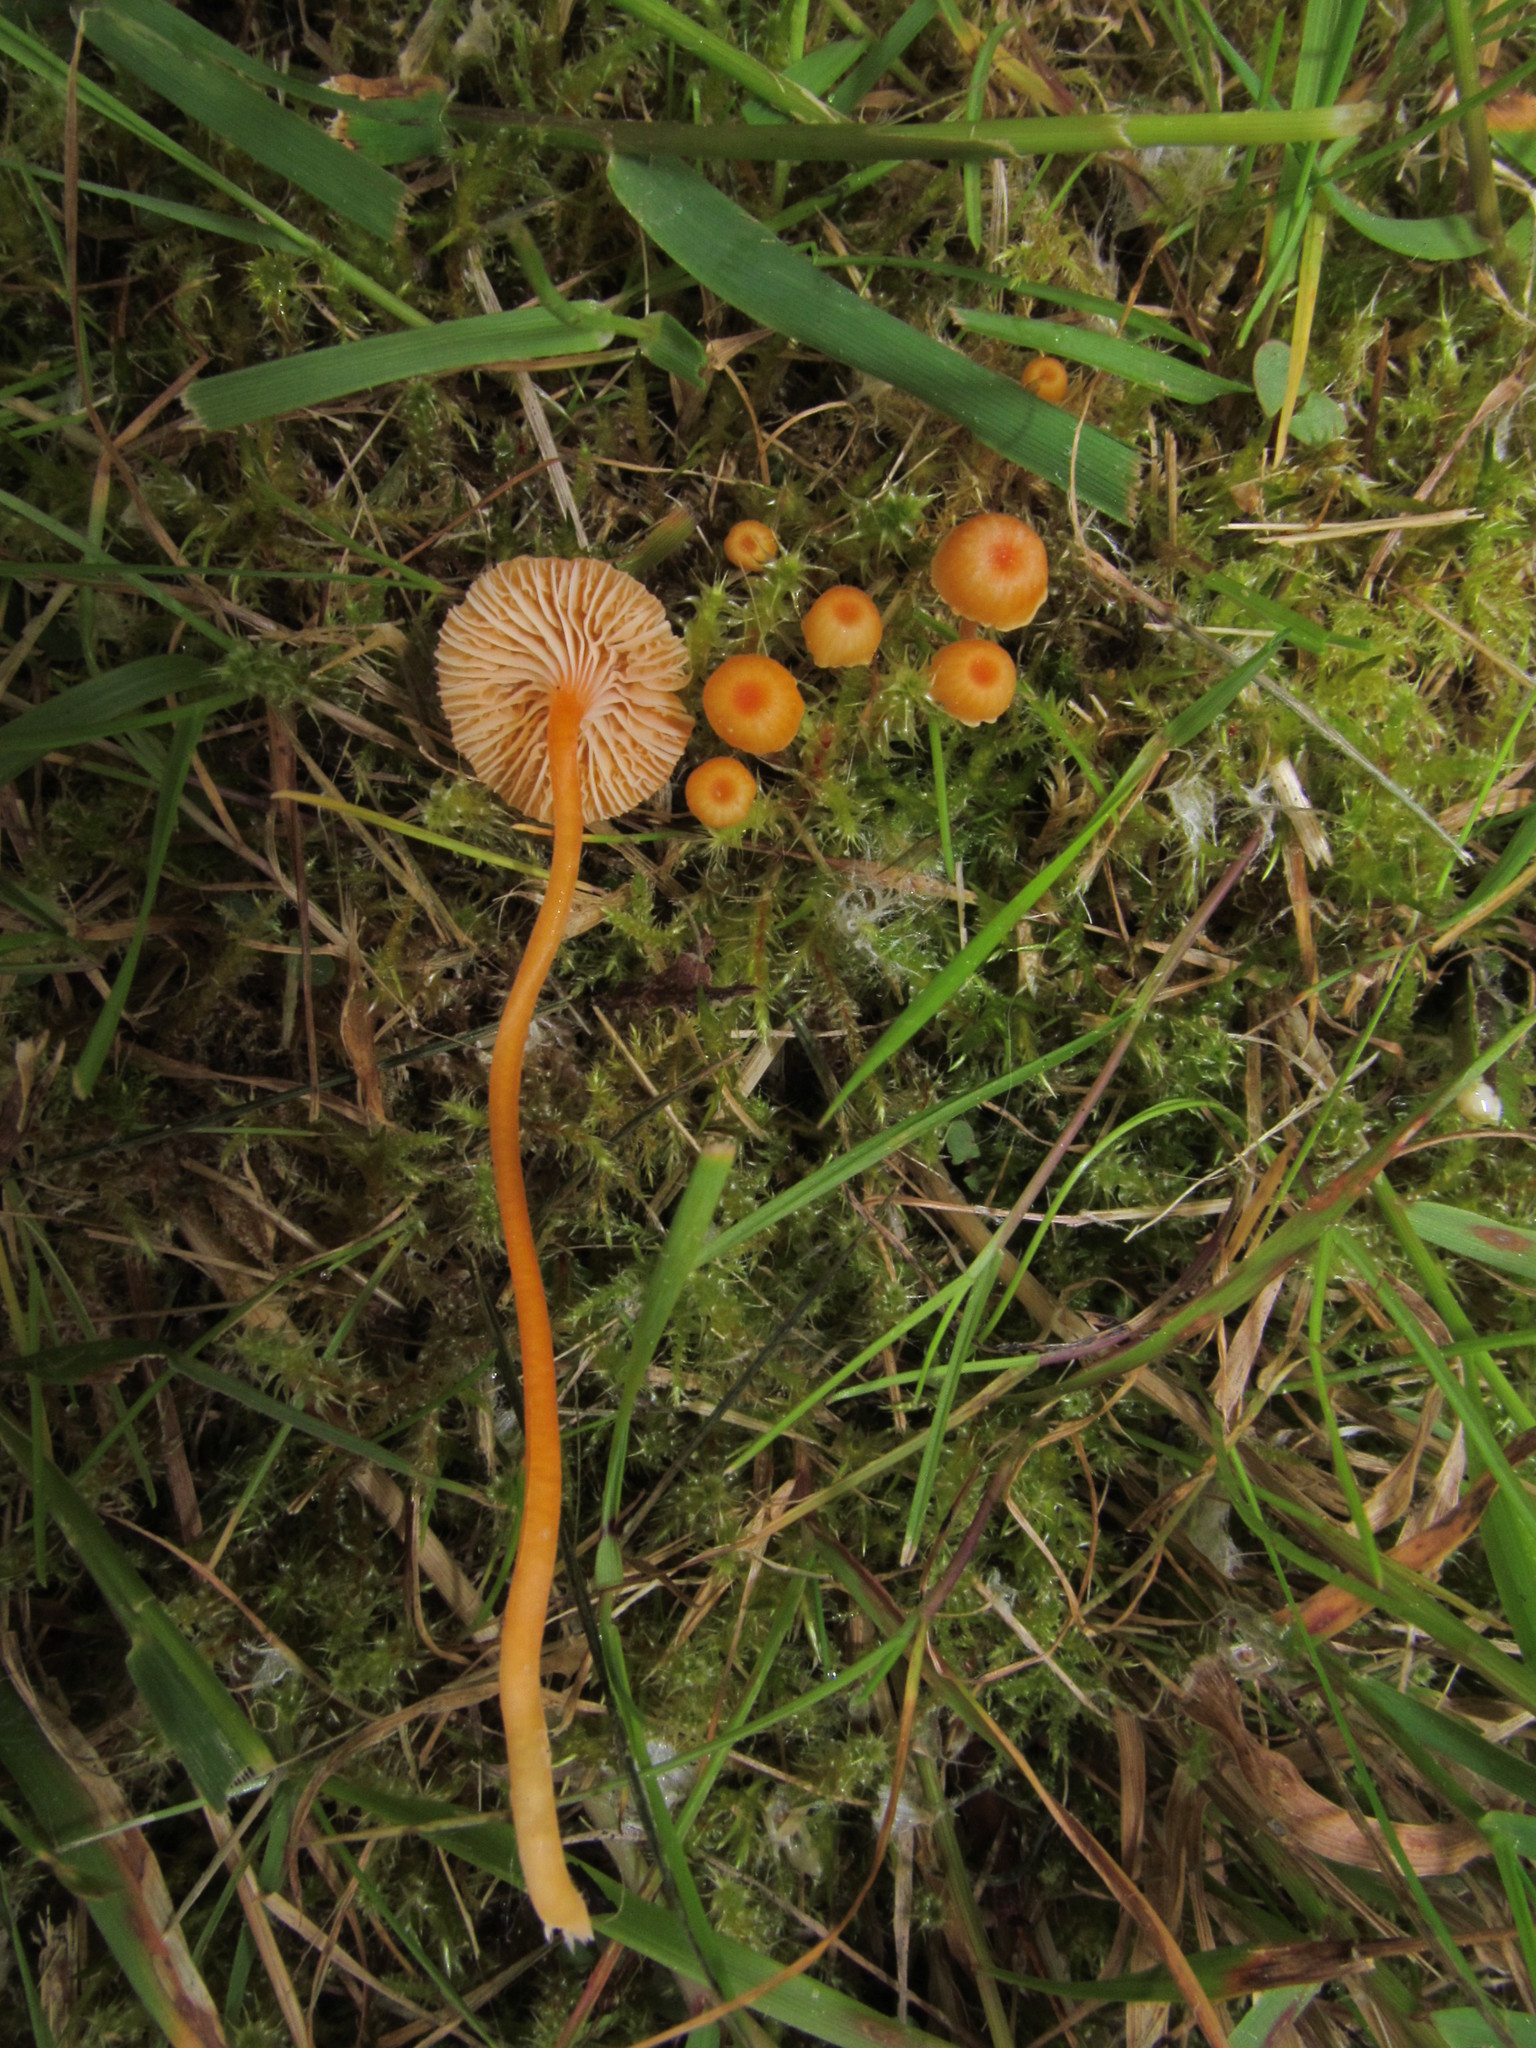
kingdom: Fungi
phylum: Basidiomycota
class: Agaricomycetes
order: Hymenochaetales
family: Rickenellaceae
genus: Rickenella
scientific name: Rickenella fibula
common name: Orange mosscap
